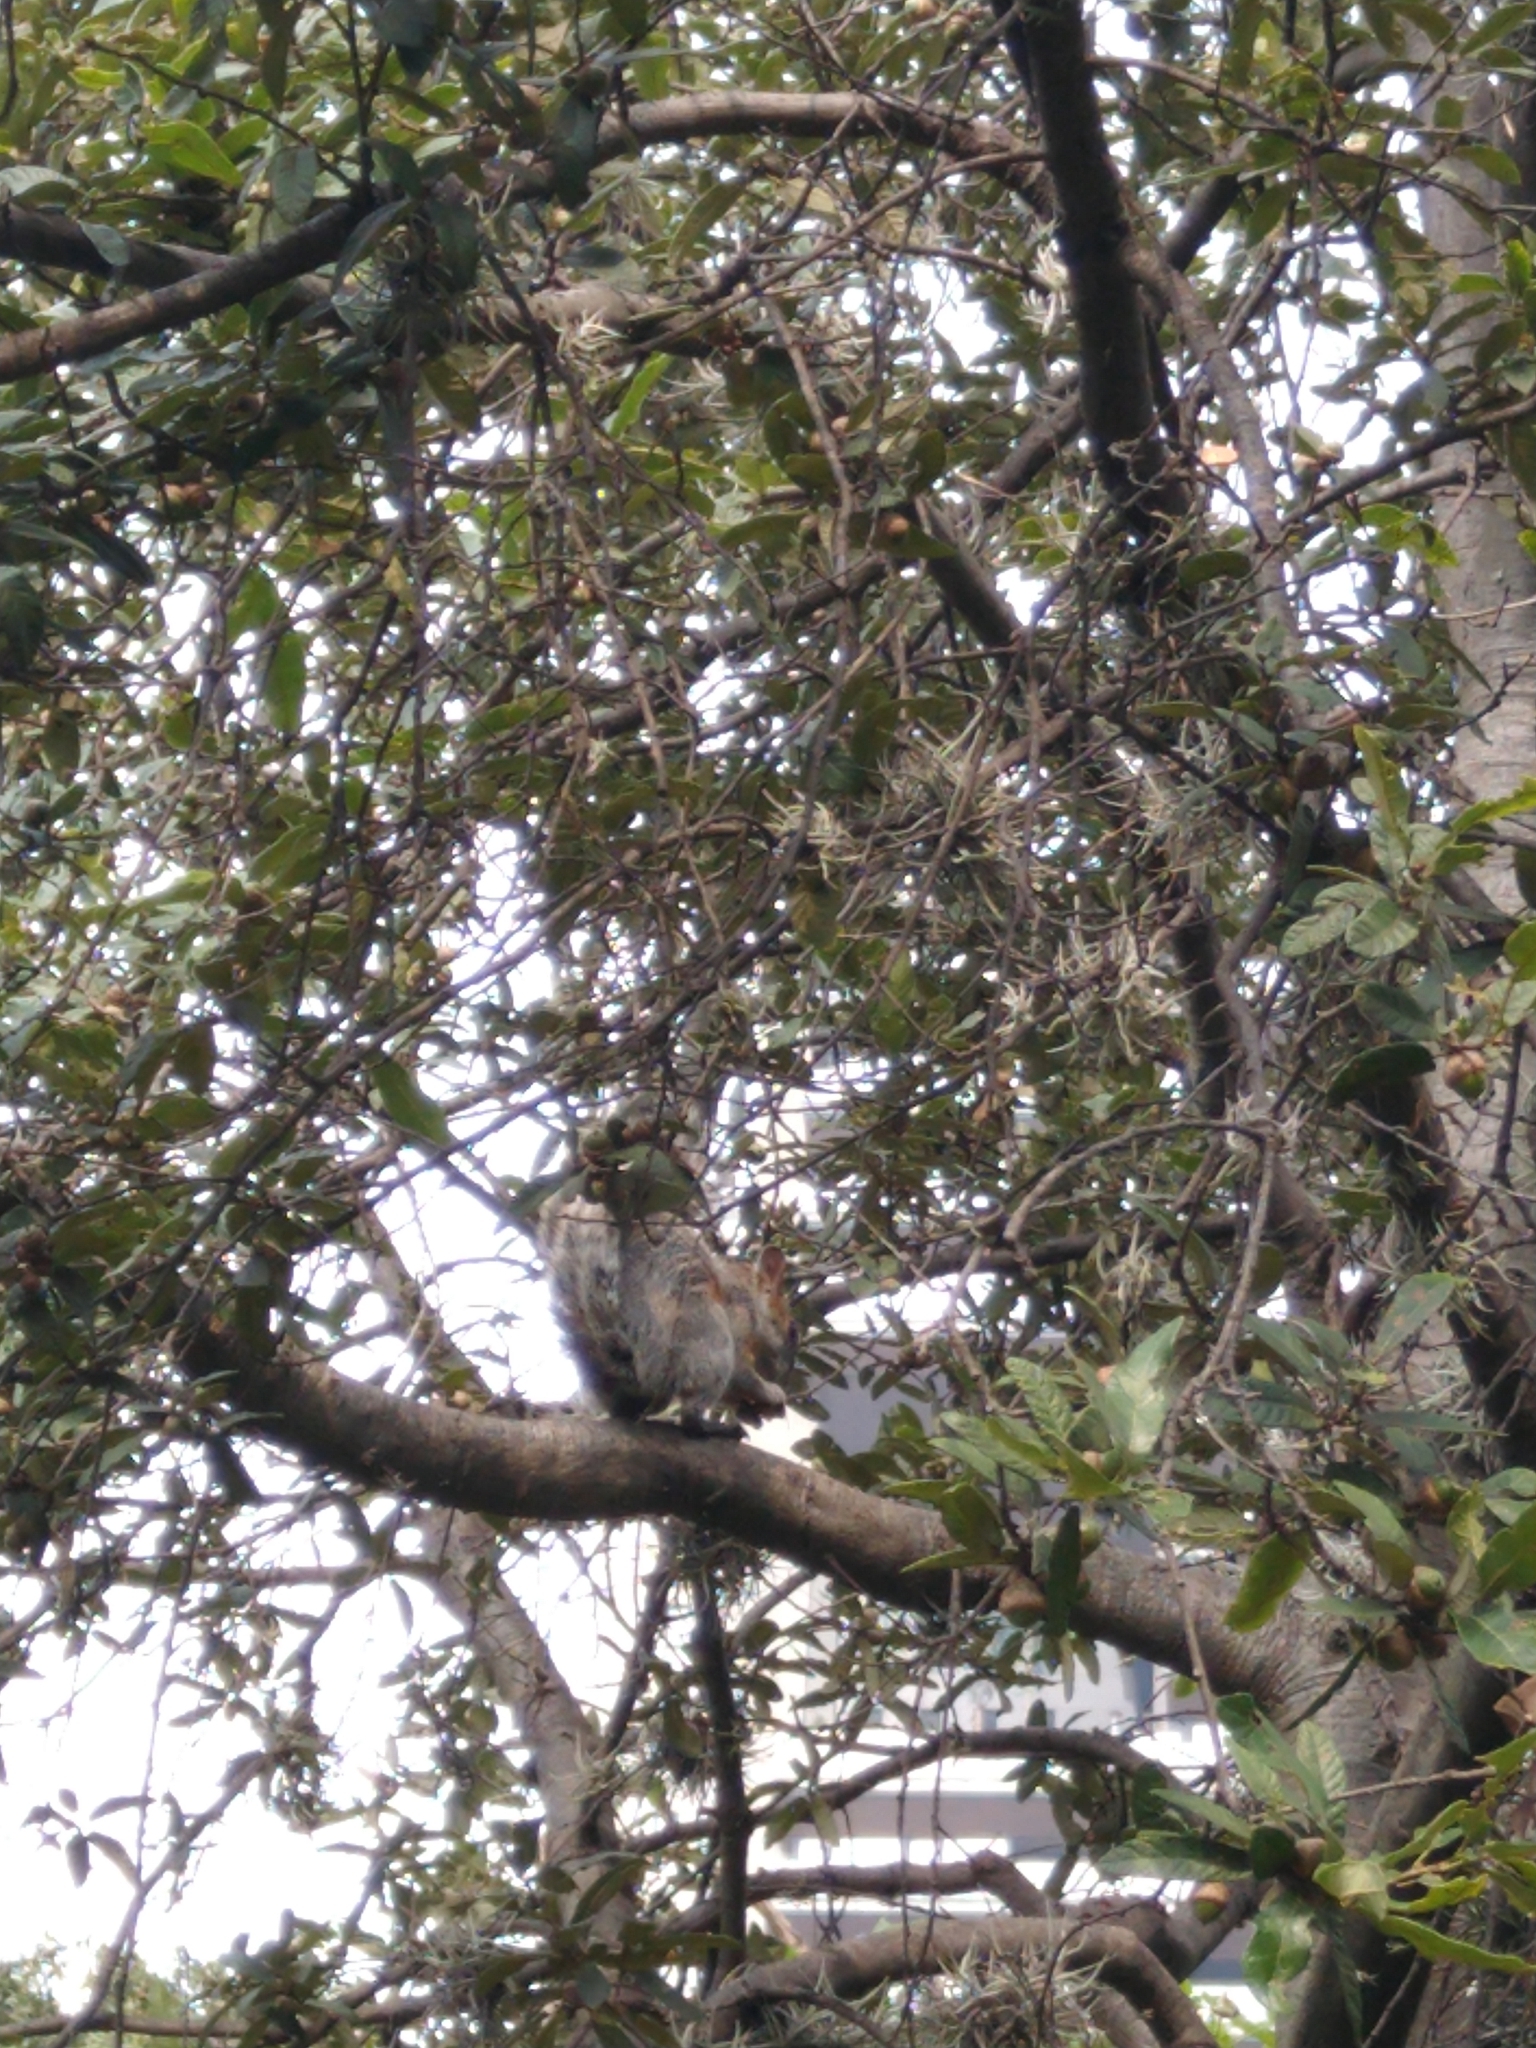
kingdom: Animalia
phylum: Chordata
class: Mammalia
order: Rodentia
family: Sciuridae
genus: Sciurus
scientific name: Sciurus aureogaster
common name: Red-bellied squirrel
